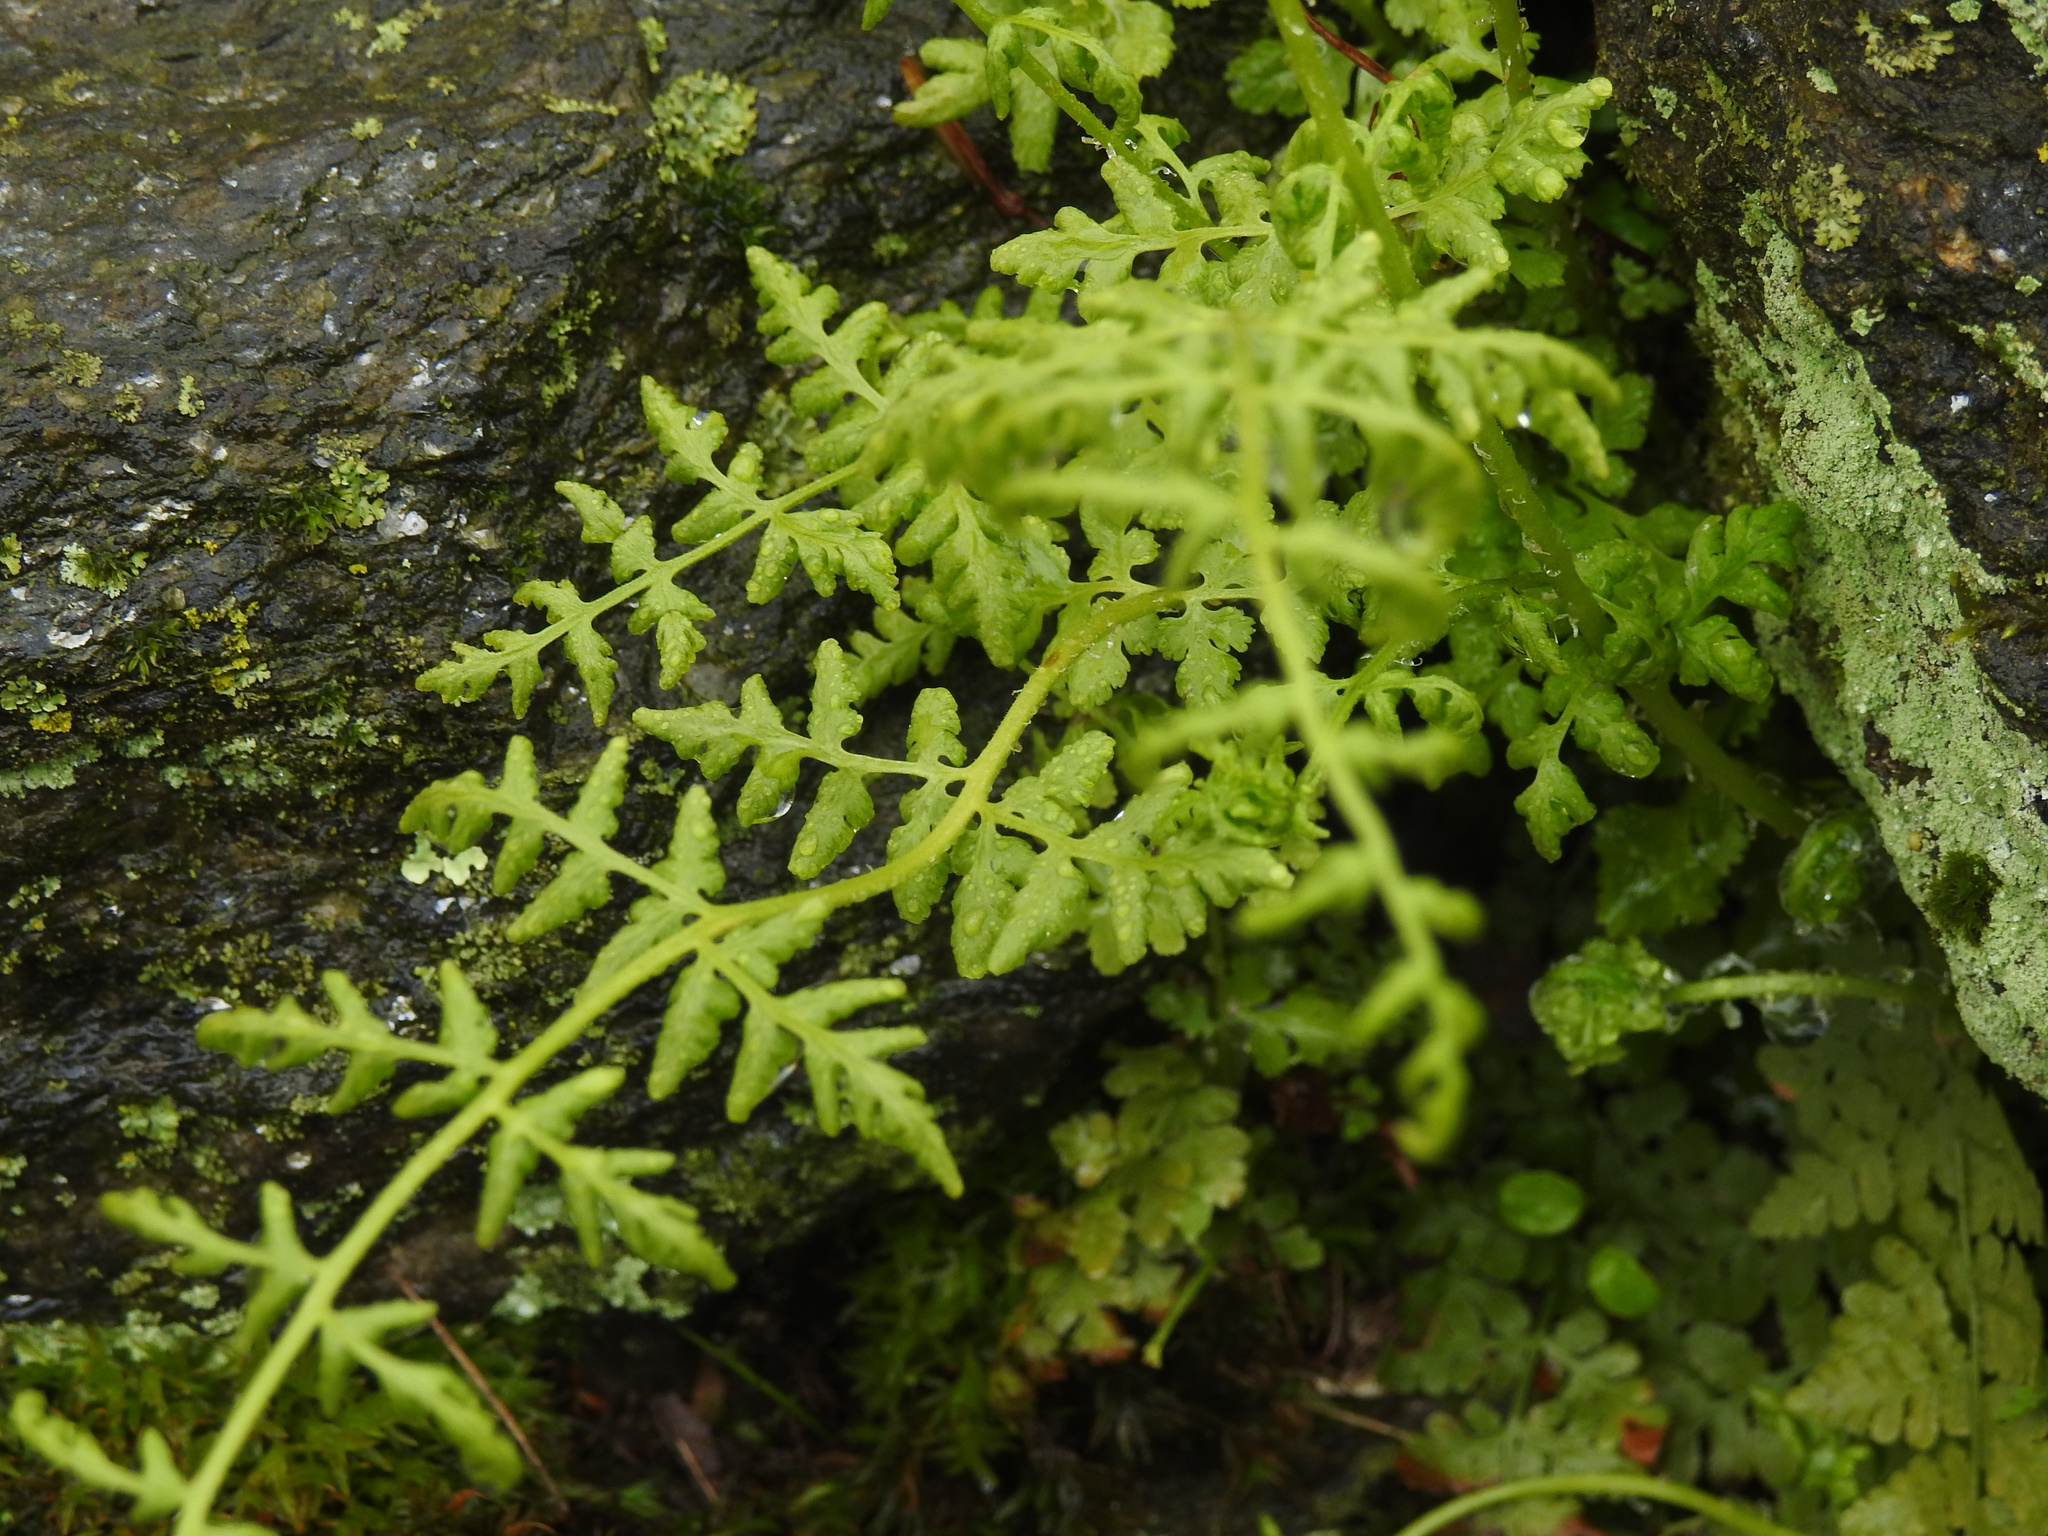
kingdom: Plantae
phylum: Tracheophyta
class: Polypodiopsida
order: Polypodiales
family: Woodsiaceae
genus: Physematium
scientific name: Physematium obtusum
